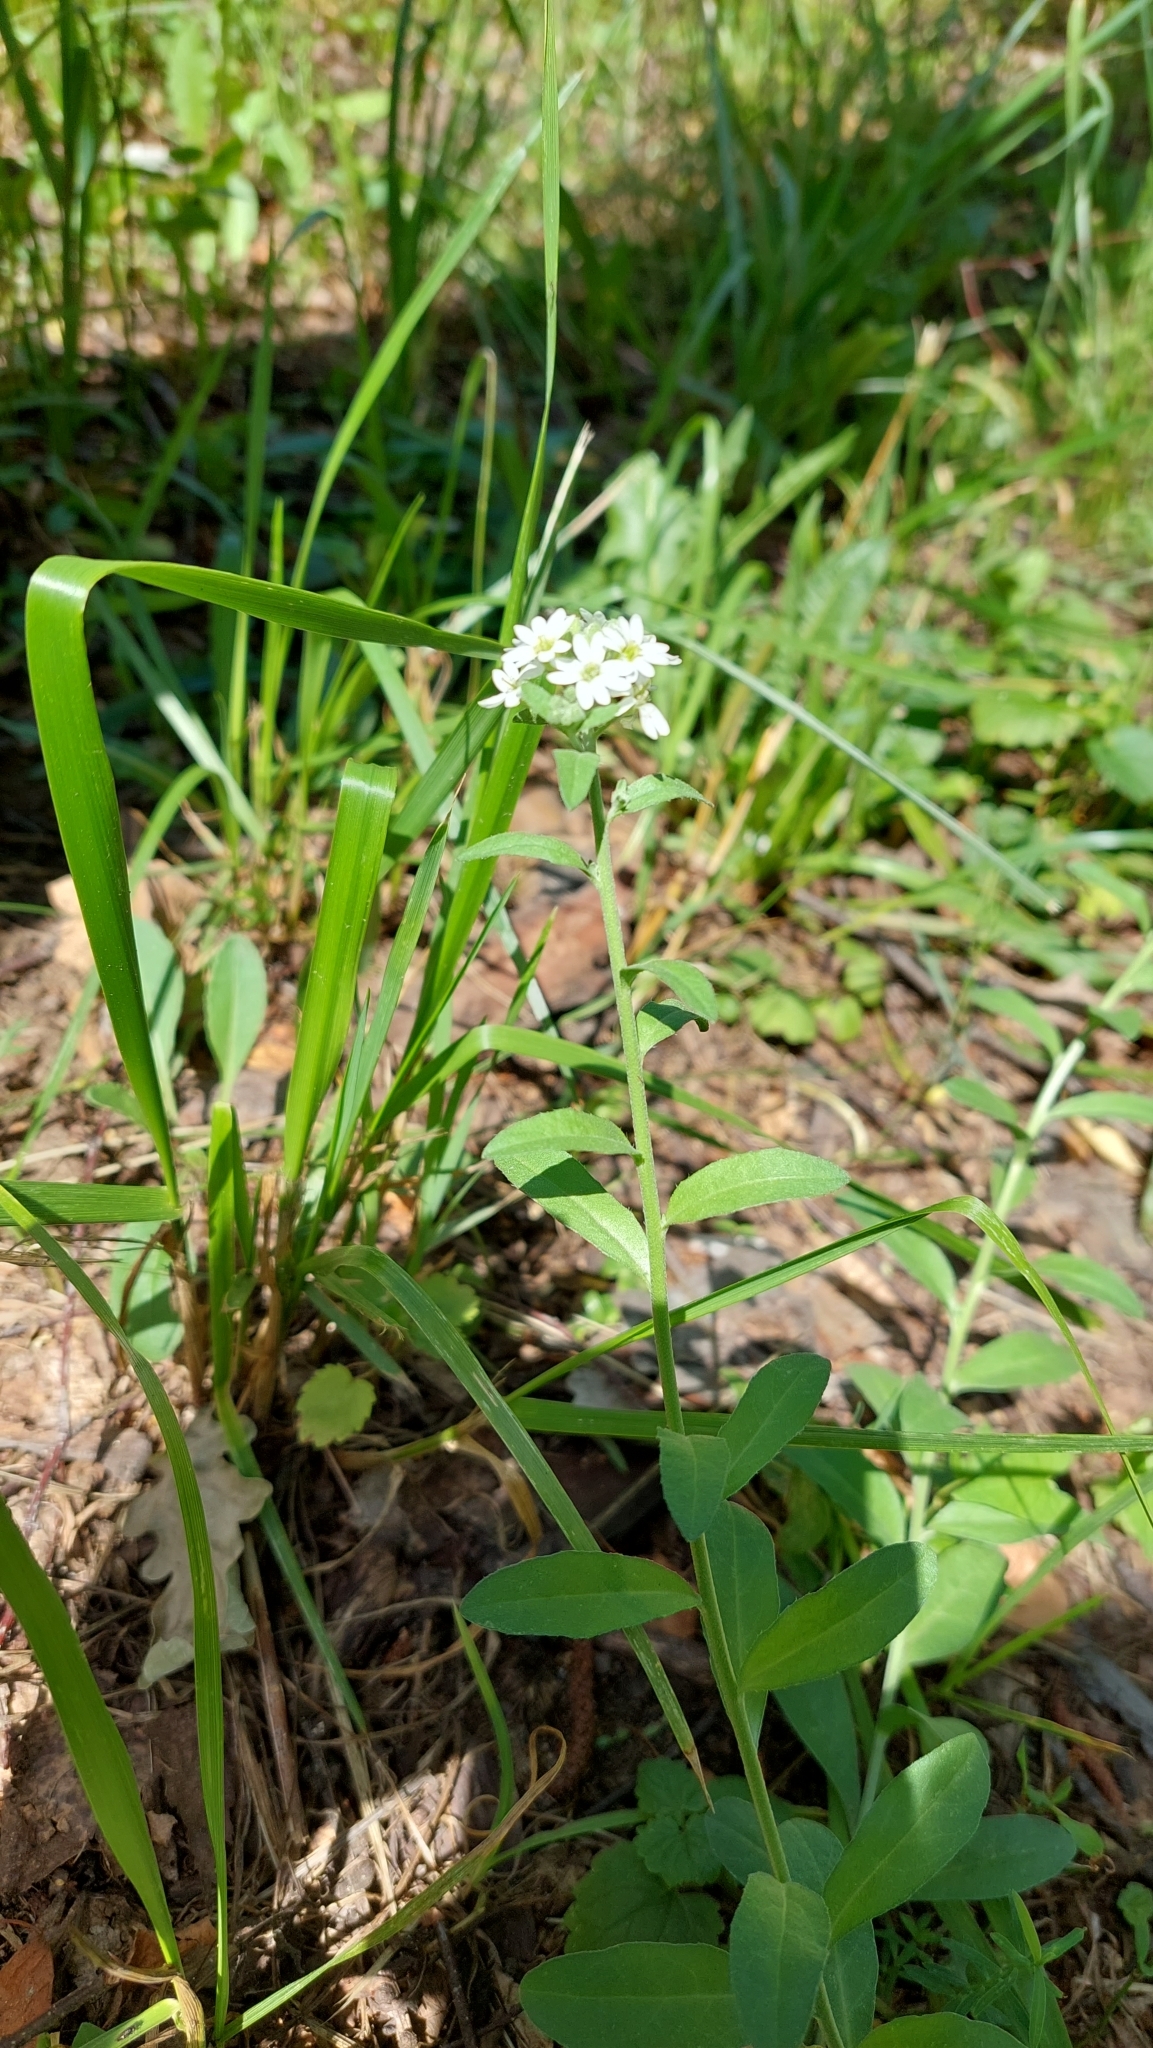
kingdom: Plantae
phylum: Tracheophyta
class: Magnoliopsida
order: Brassicales
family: Brassicaceae
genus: Berteroa
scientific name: Berteroa incana
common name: Hoary alison
